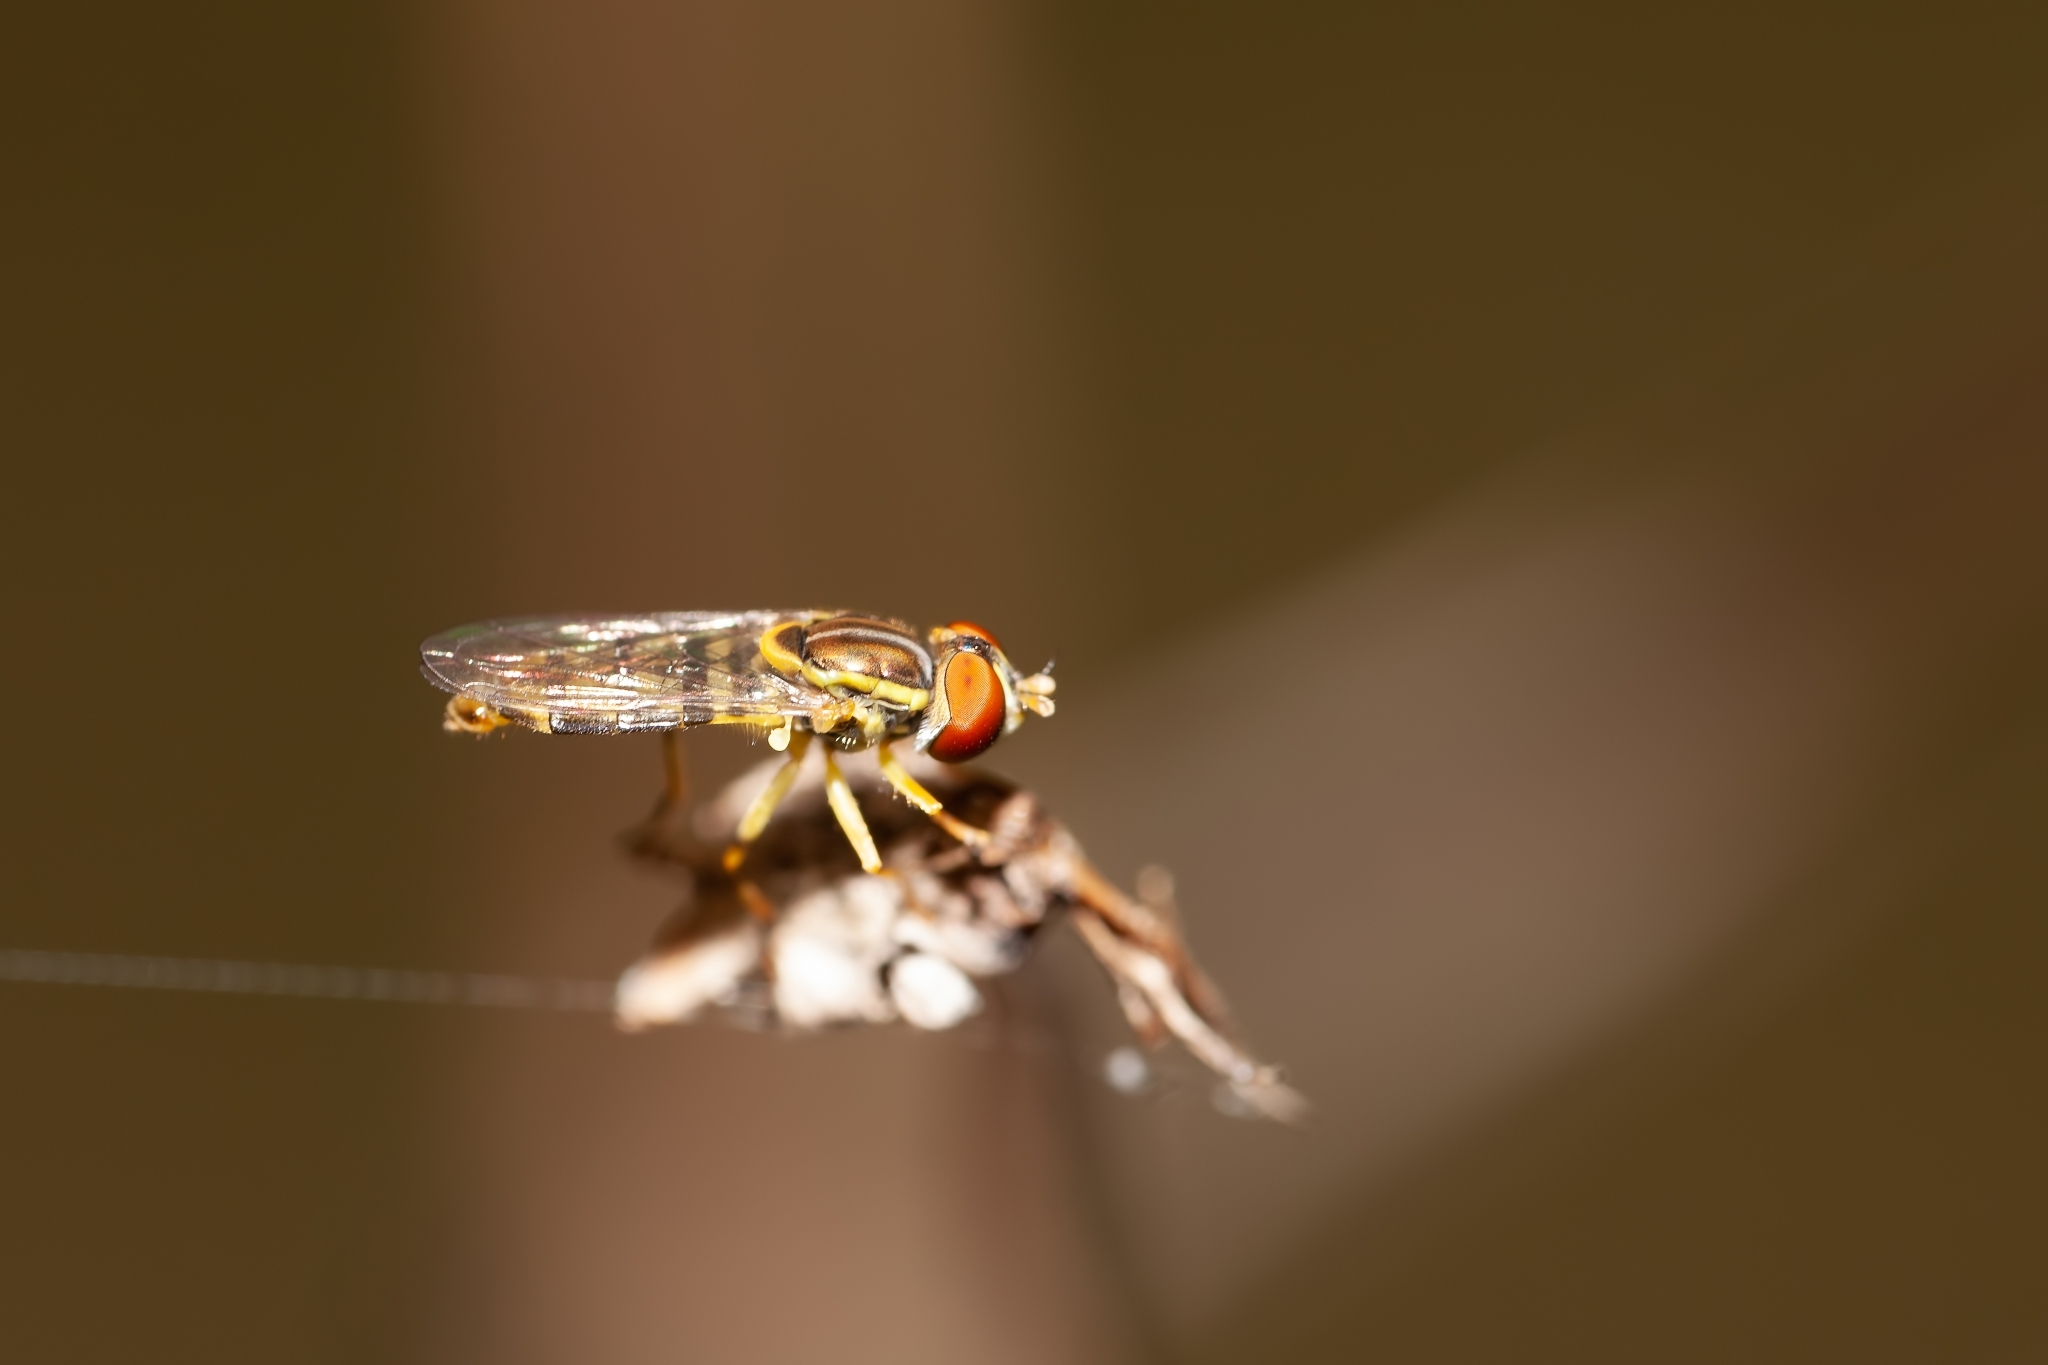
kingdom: Animalia
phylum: Arthropoda
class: Insecta
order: Diptera
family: Syrphidae
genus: Toxomerus
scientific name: Toxomerus floralis
